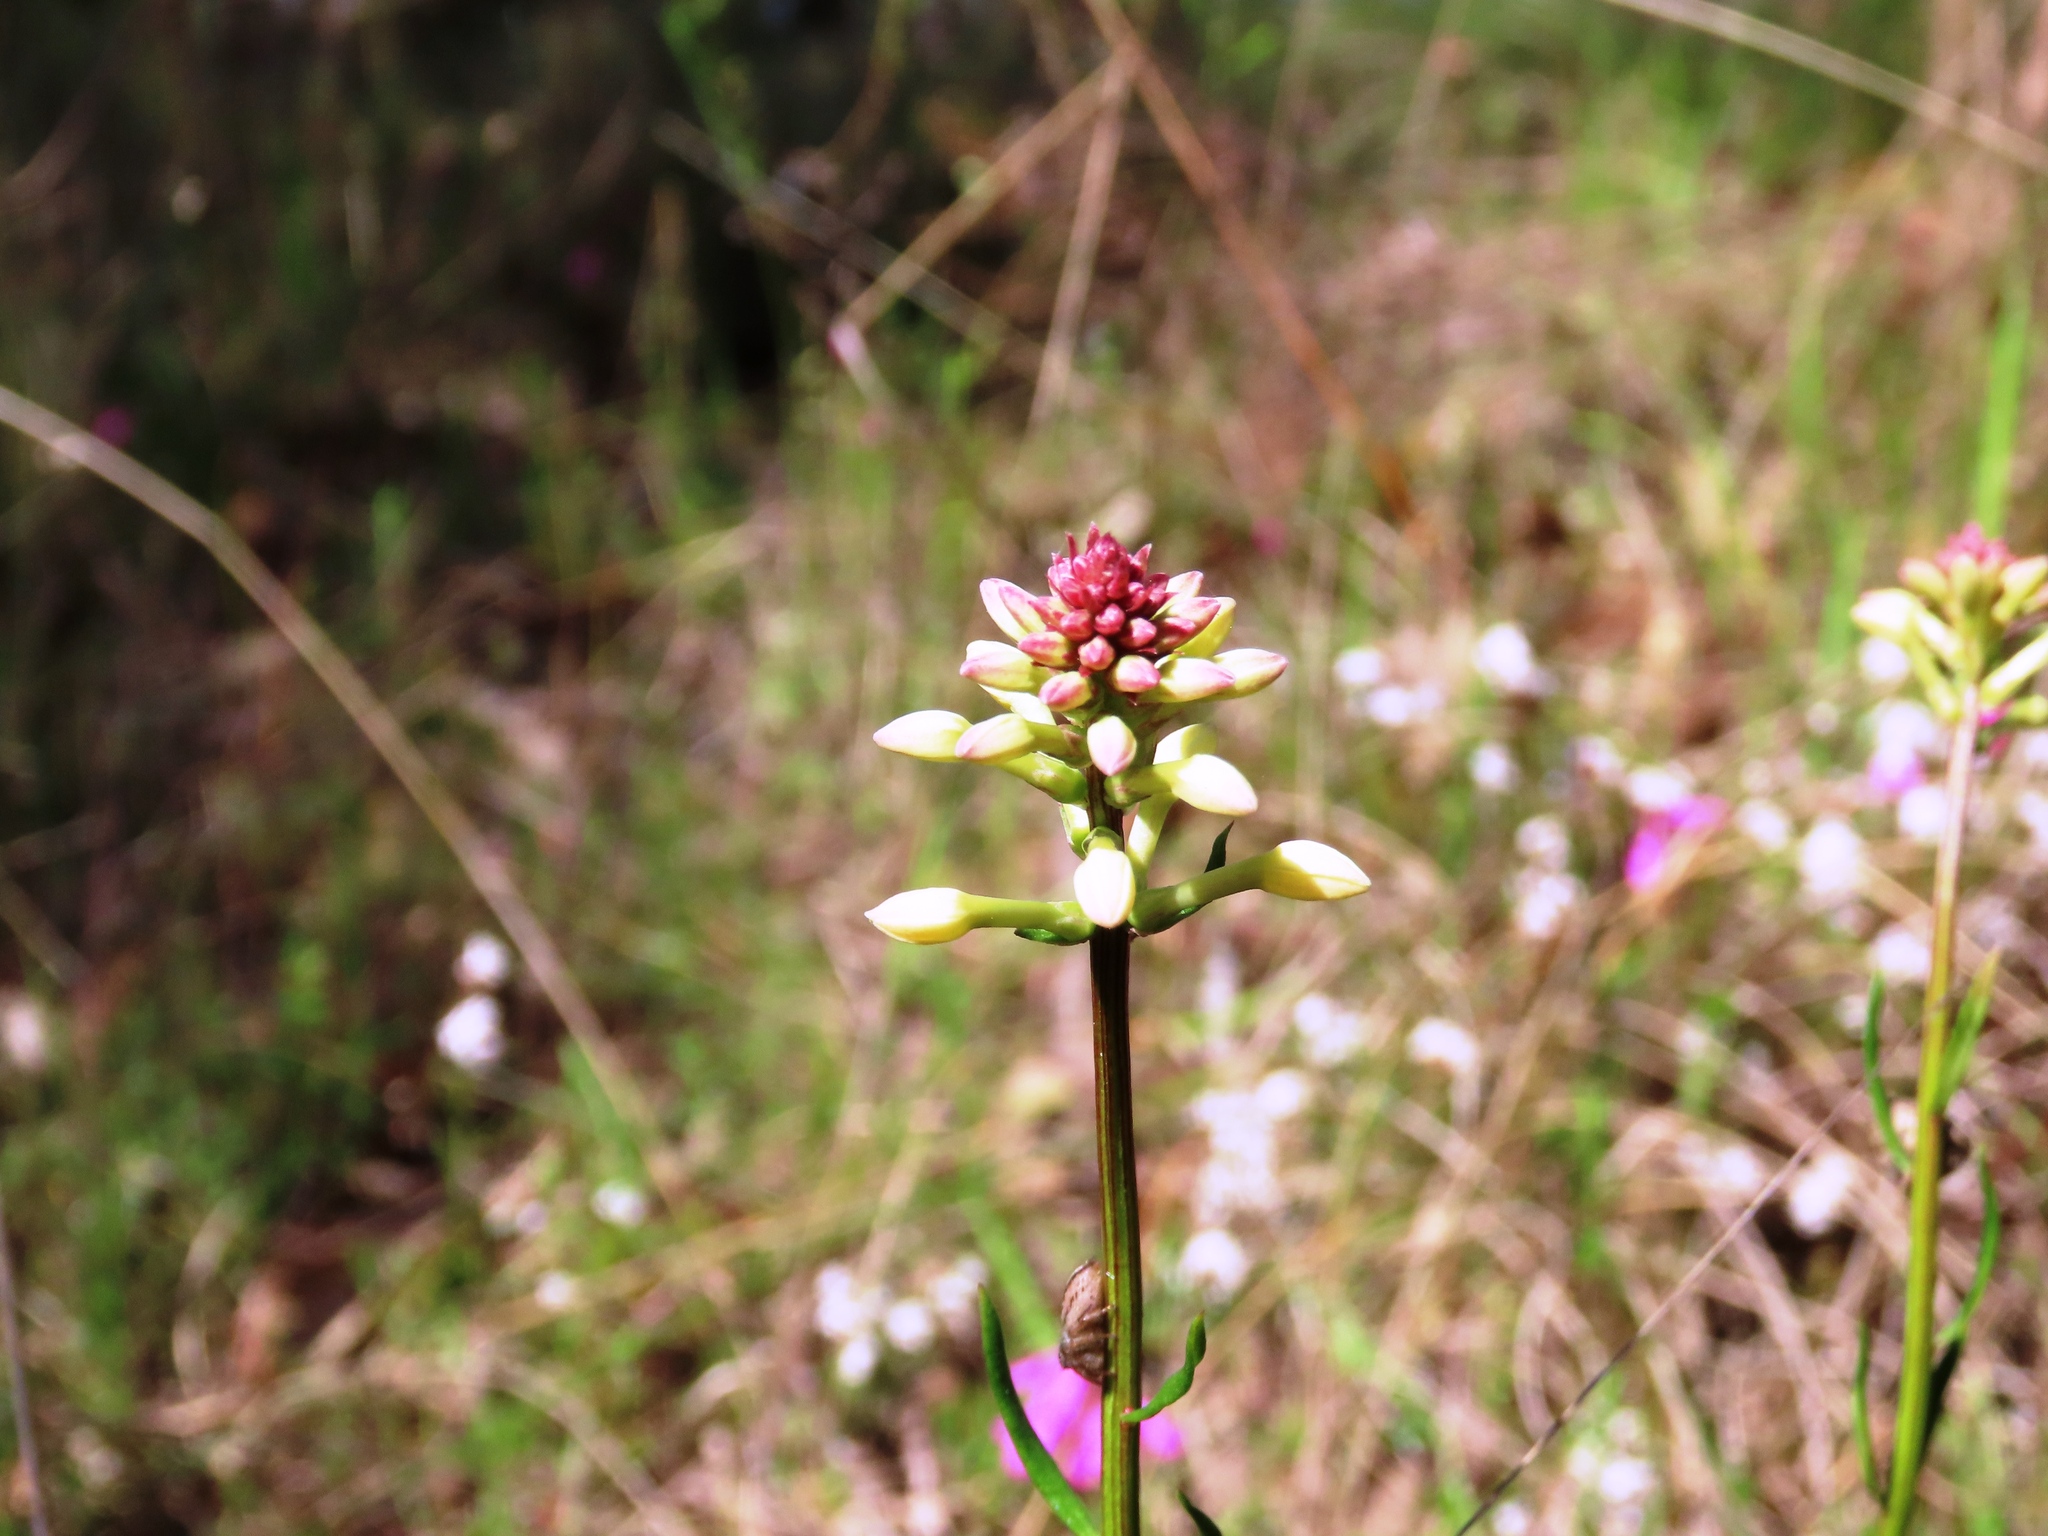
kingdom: Plantae
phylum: Tracheophyta
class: Magnoliopsida
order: Celastrales
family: Celastraceae
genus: Stackhousia
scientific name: Stackhousia subterranea
